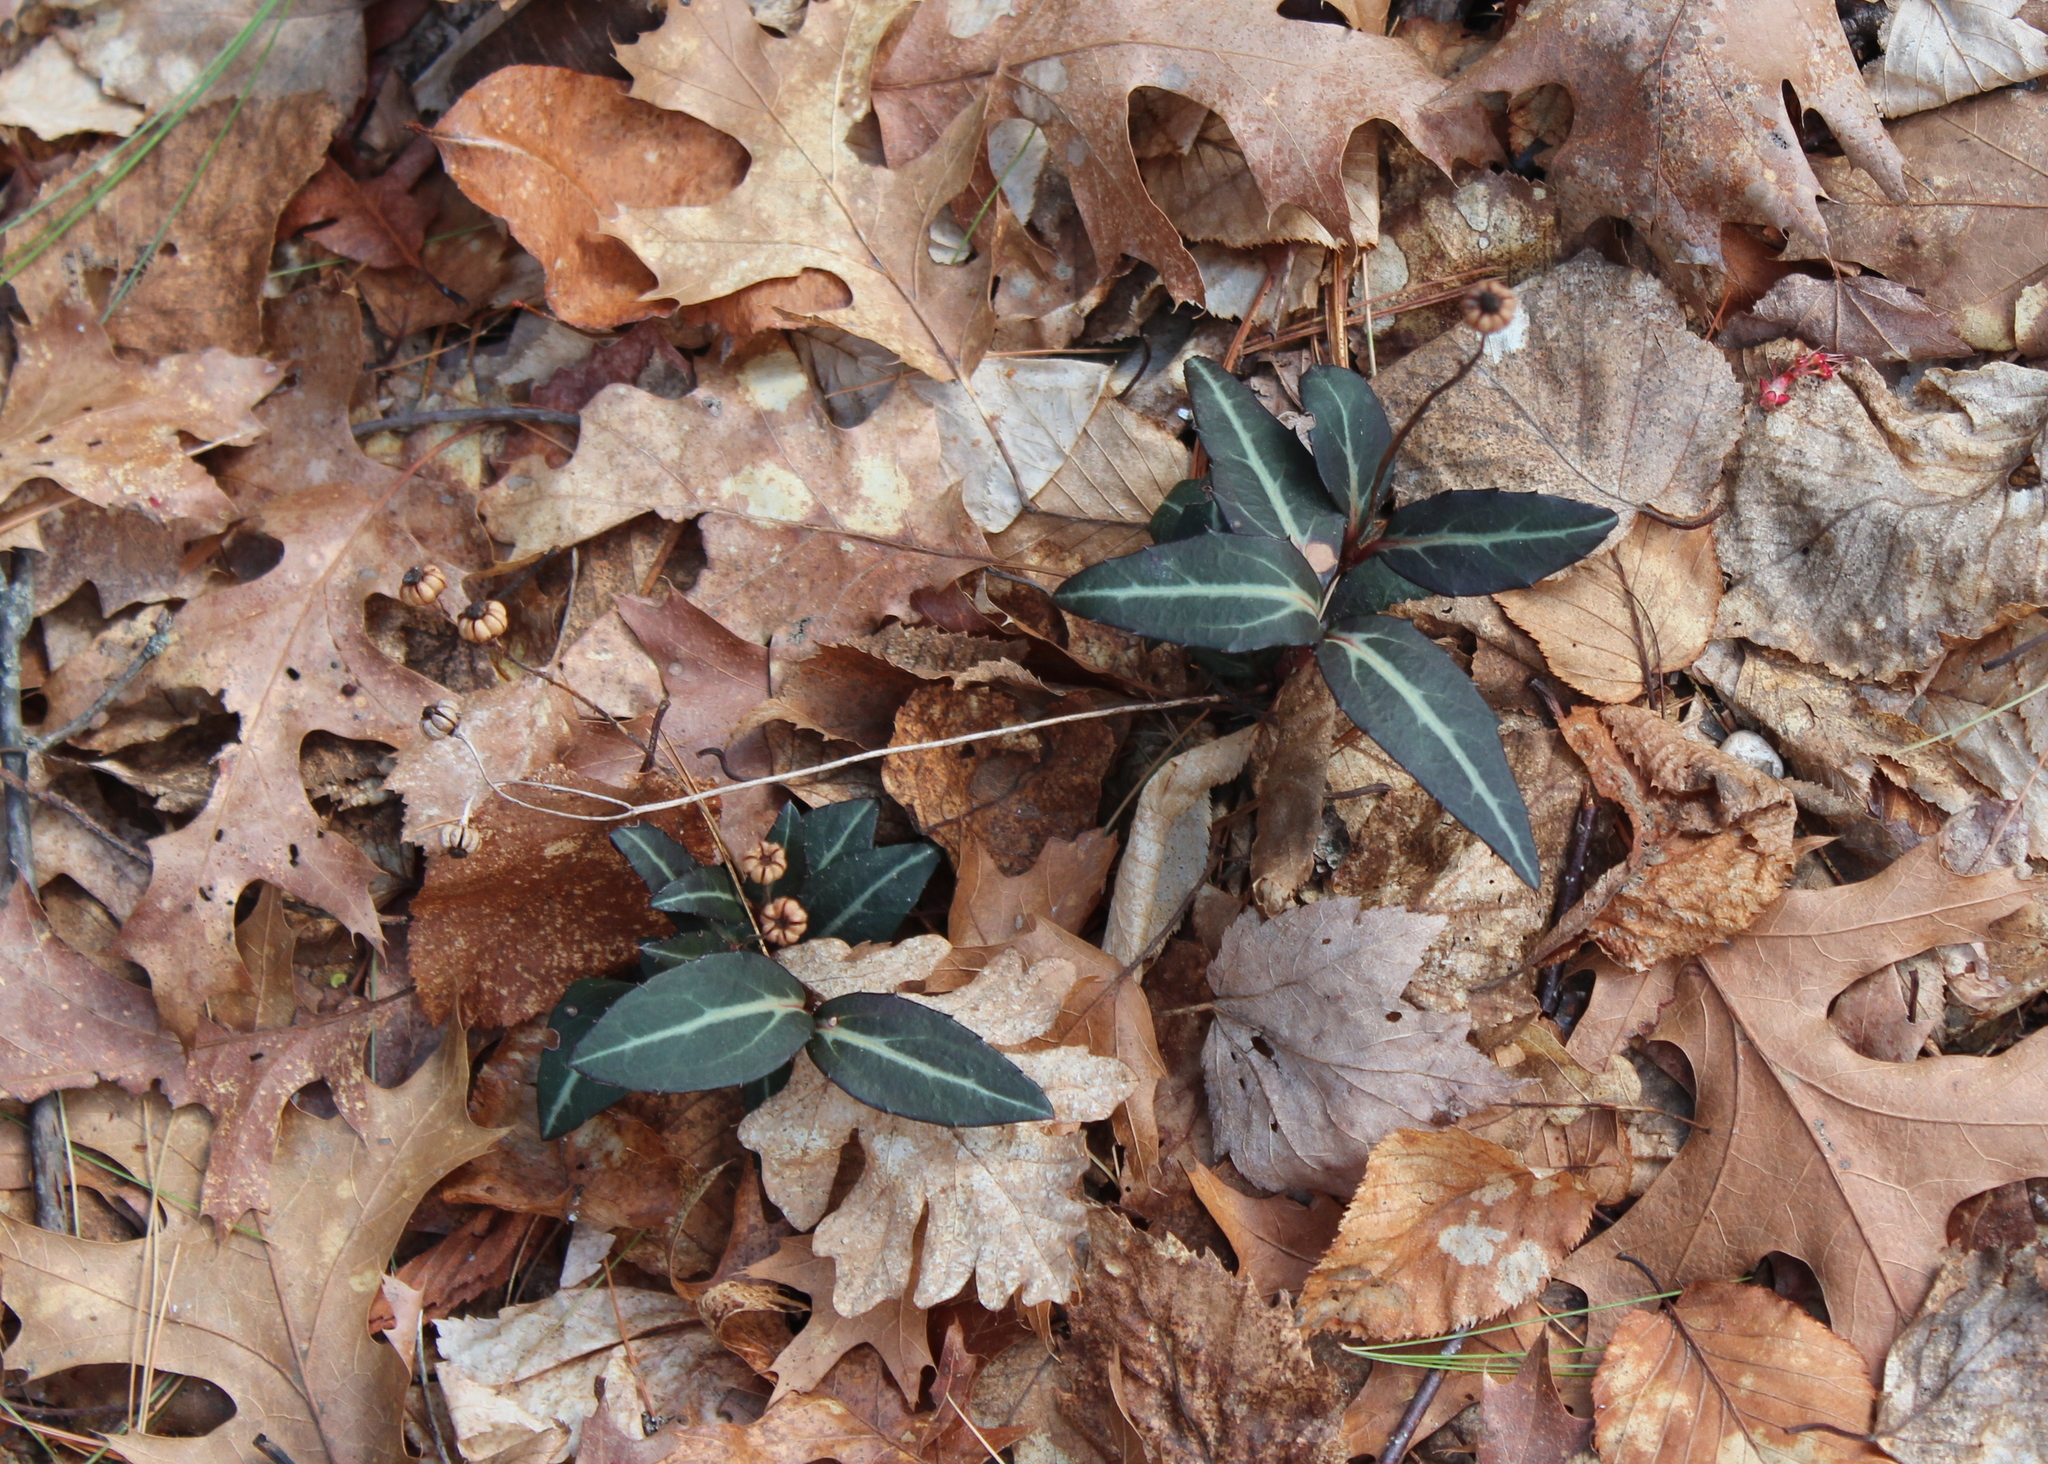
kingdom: Plantae
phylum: Tracheophyta
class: Magnoliopsida
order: Ericales
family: Ericaceae
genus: Chimaphila
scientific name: Chimaphila maculata
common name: Spotted pipsissewa
